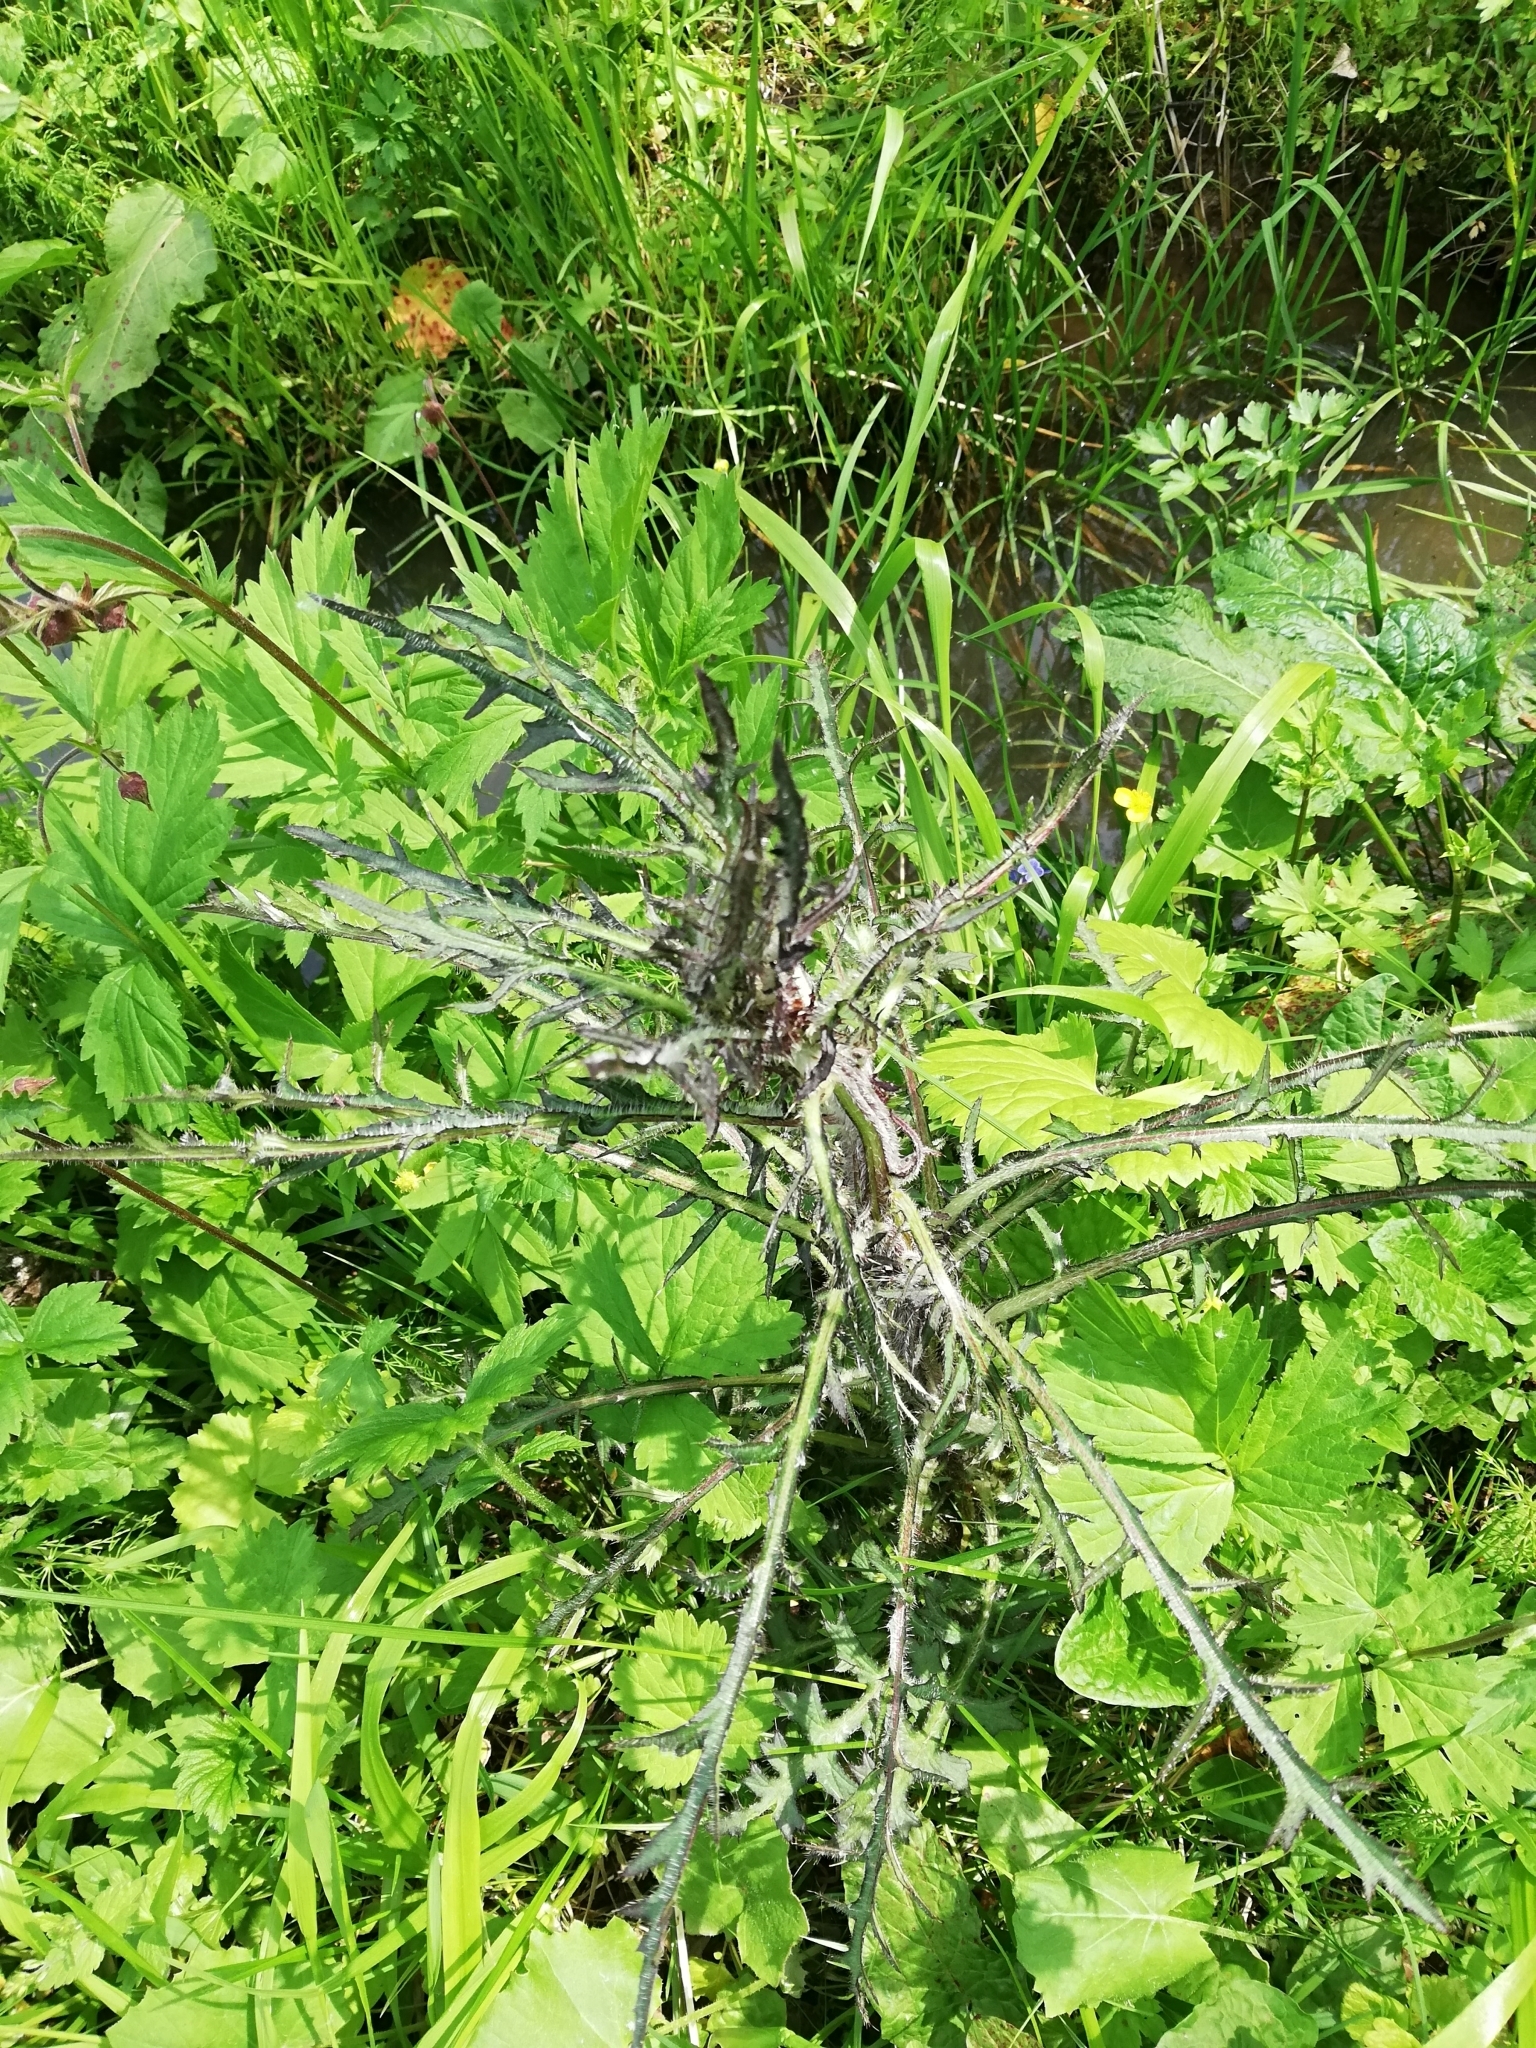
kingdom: Plantae
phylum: Tracheophyta
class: Magnoliopsida
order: Asterales
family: Asteraceae
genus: Cirsium
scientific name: Cirsium palustre
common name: Marsh thistle
